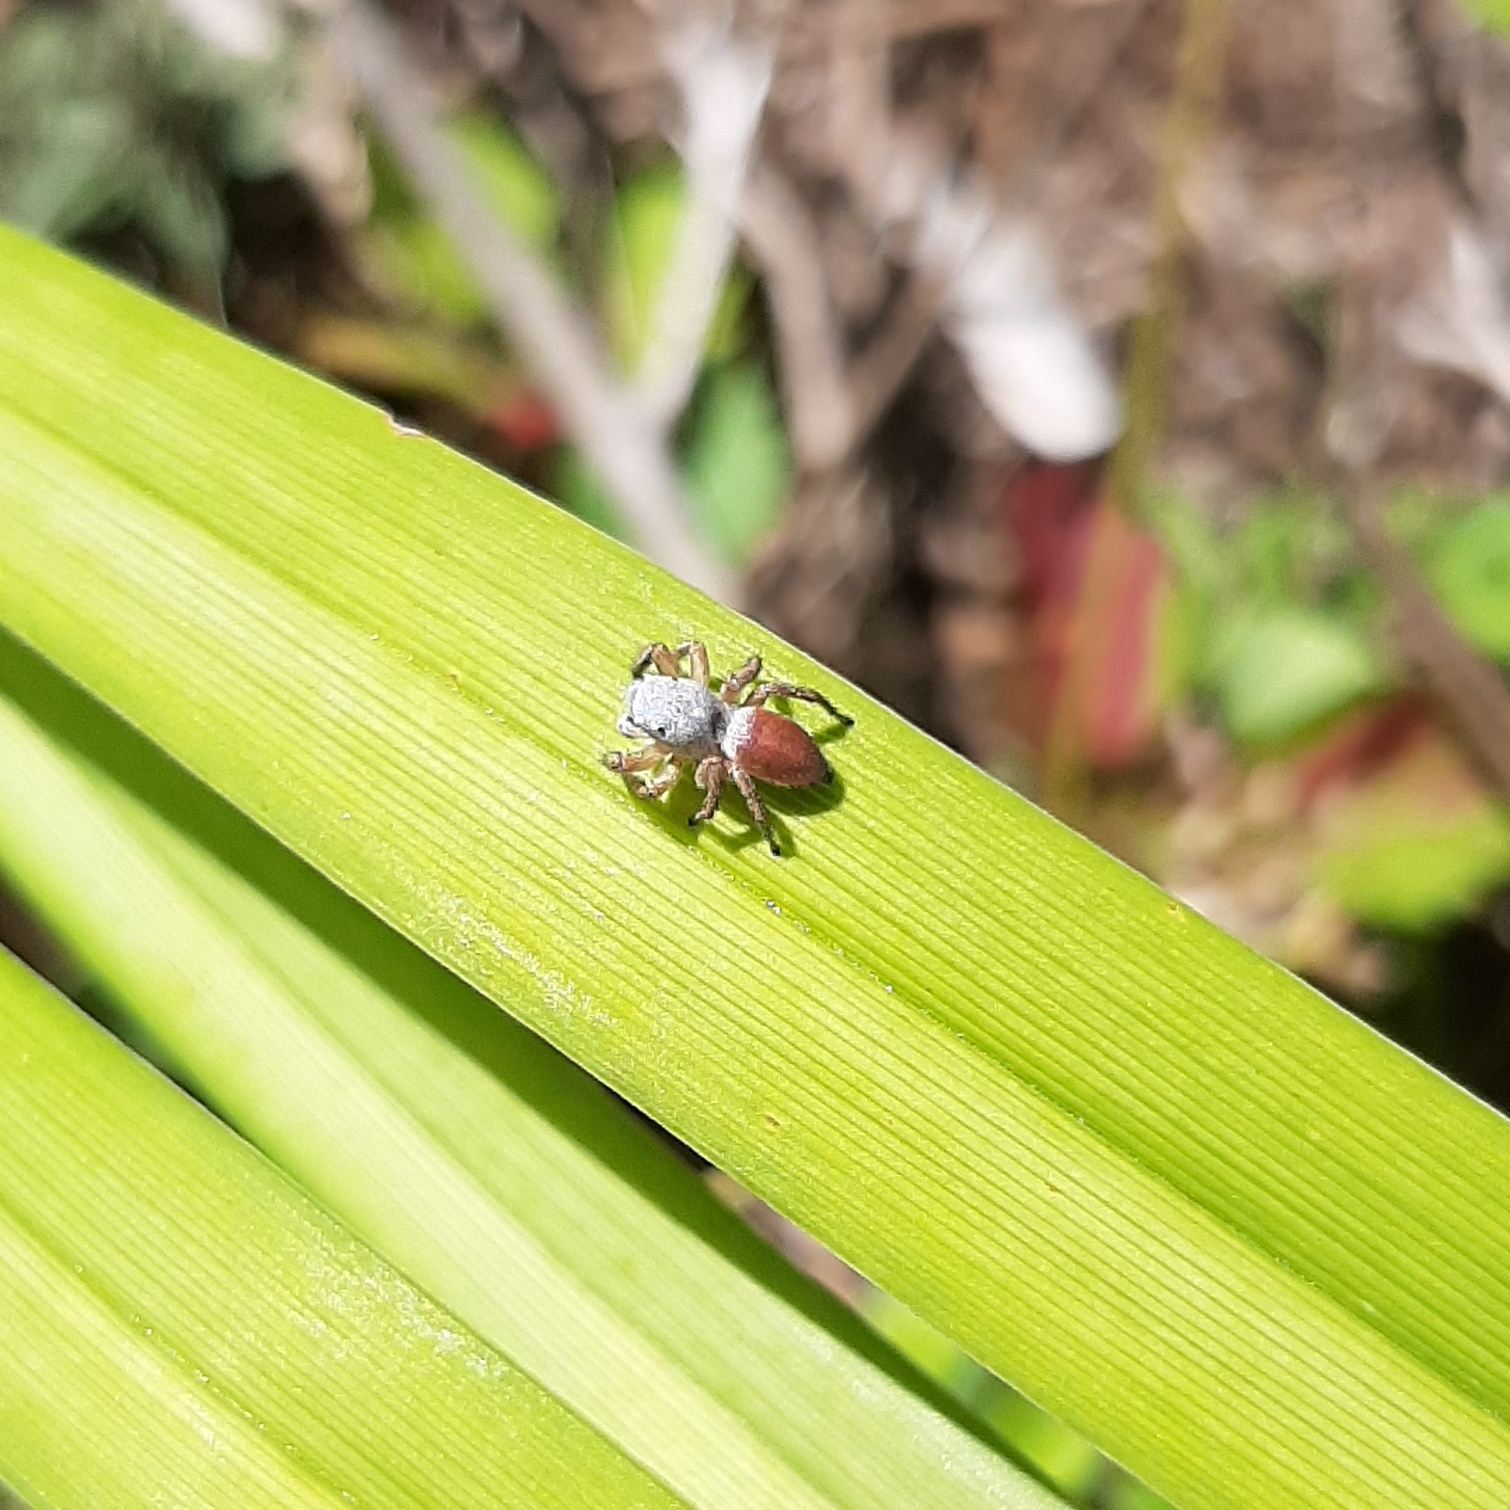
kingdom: Animalia
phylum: Arthropoda
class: Arachnida
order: Araneae
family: Salticidae
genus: Habronattus
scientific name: Habronattus decorus
